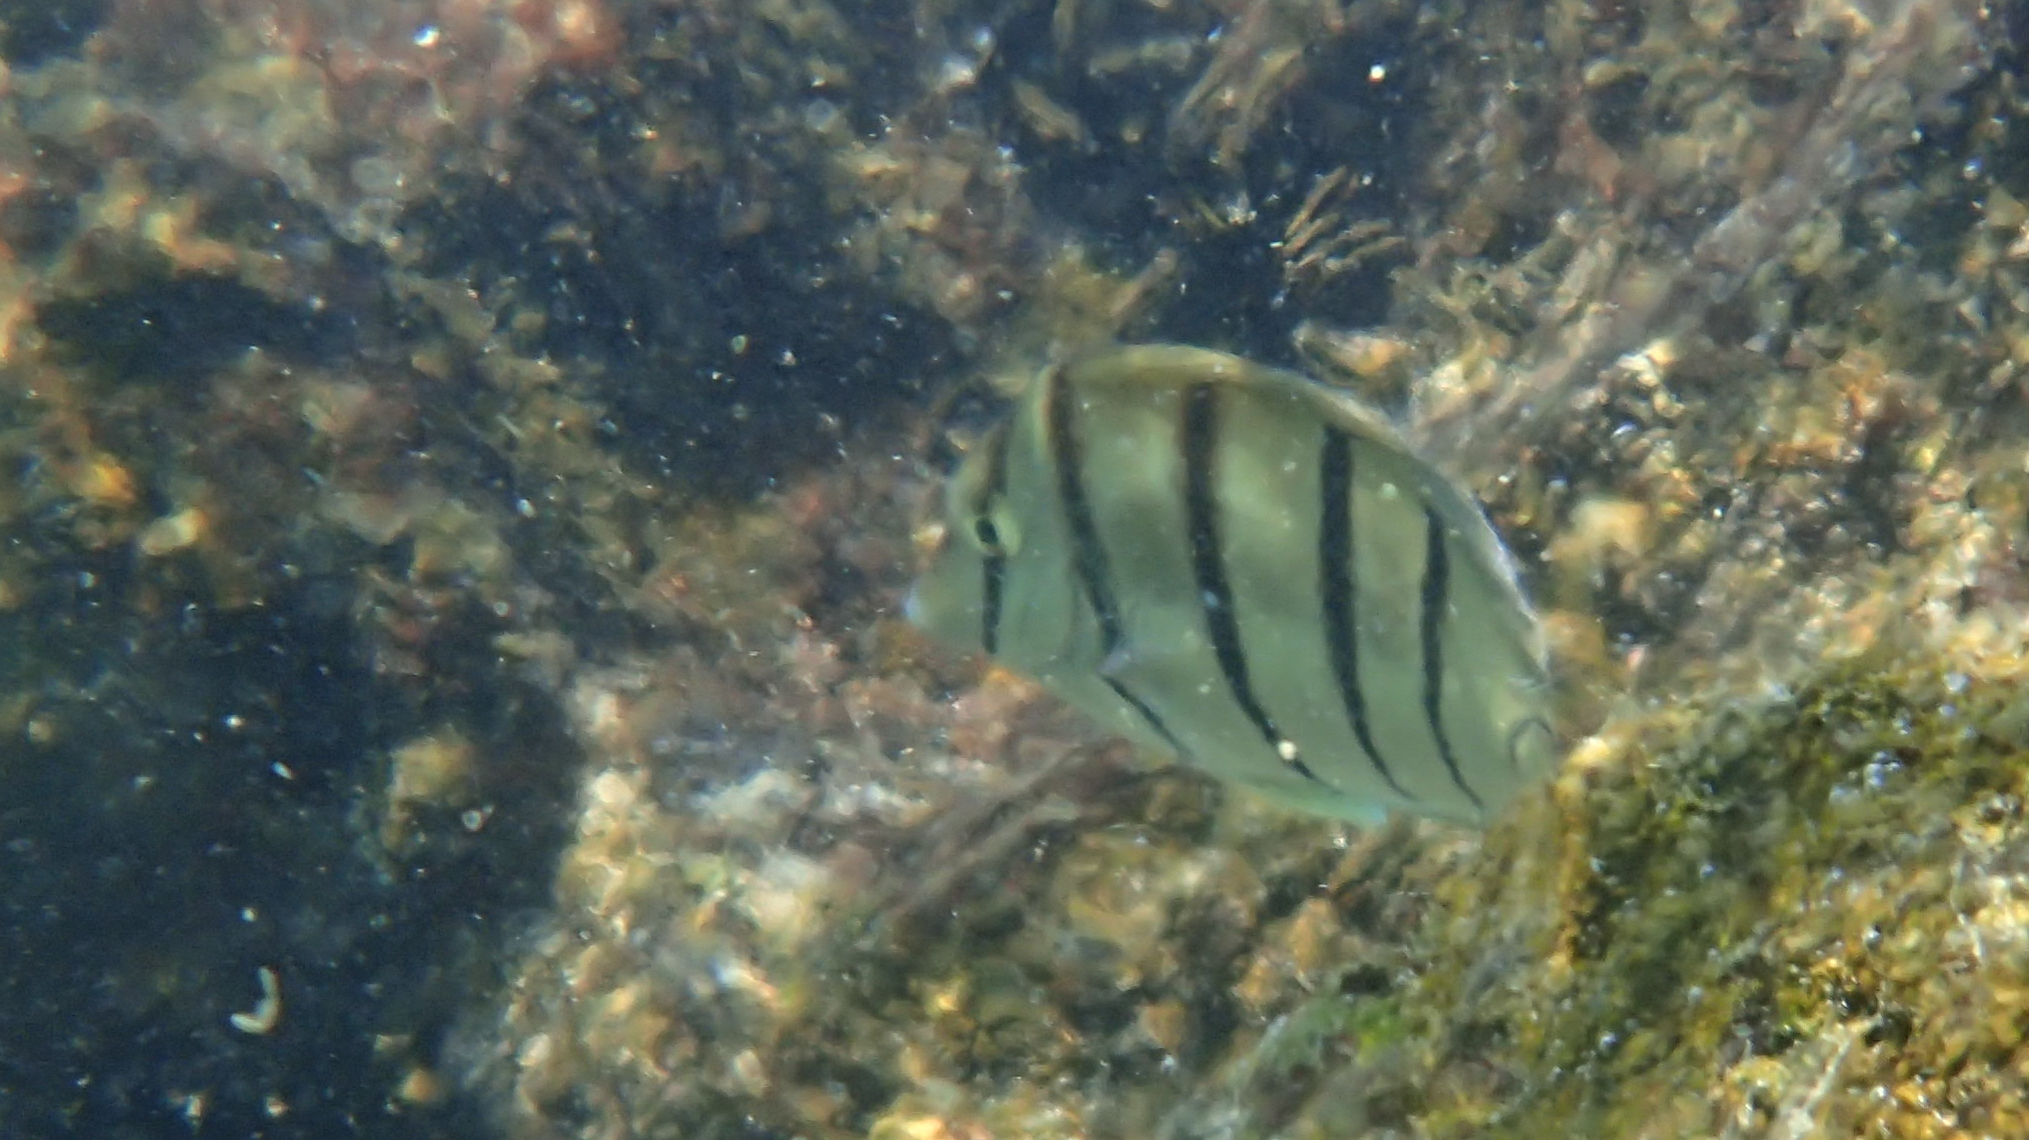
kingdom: Animalia
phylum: Chordata
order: Perciformes
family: Acanthuridae
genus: Acanthurus
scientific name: Acanthurus triostegus
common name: Convict surgeonfish
